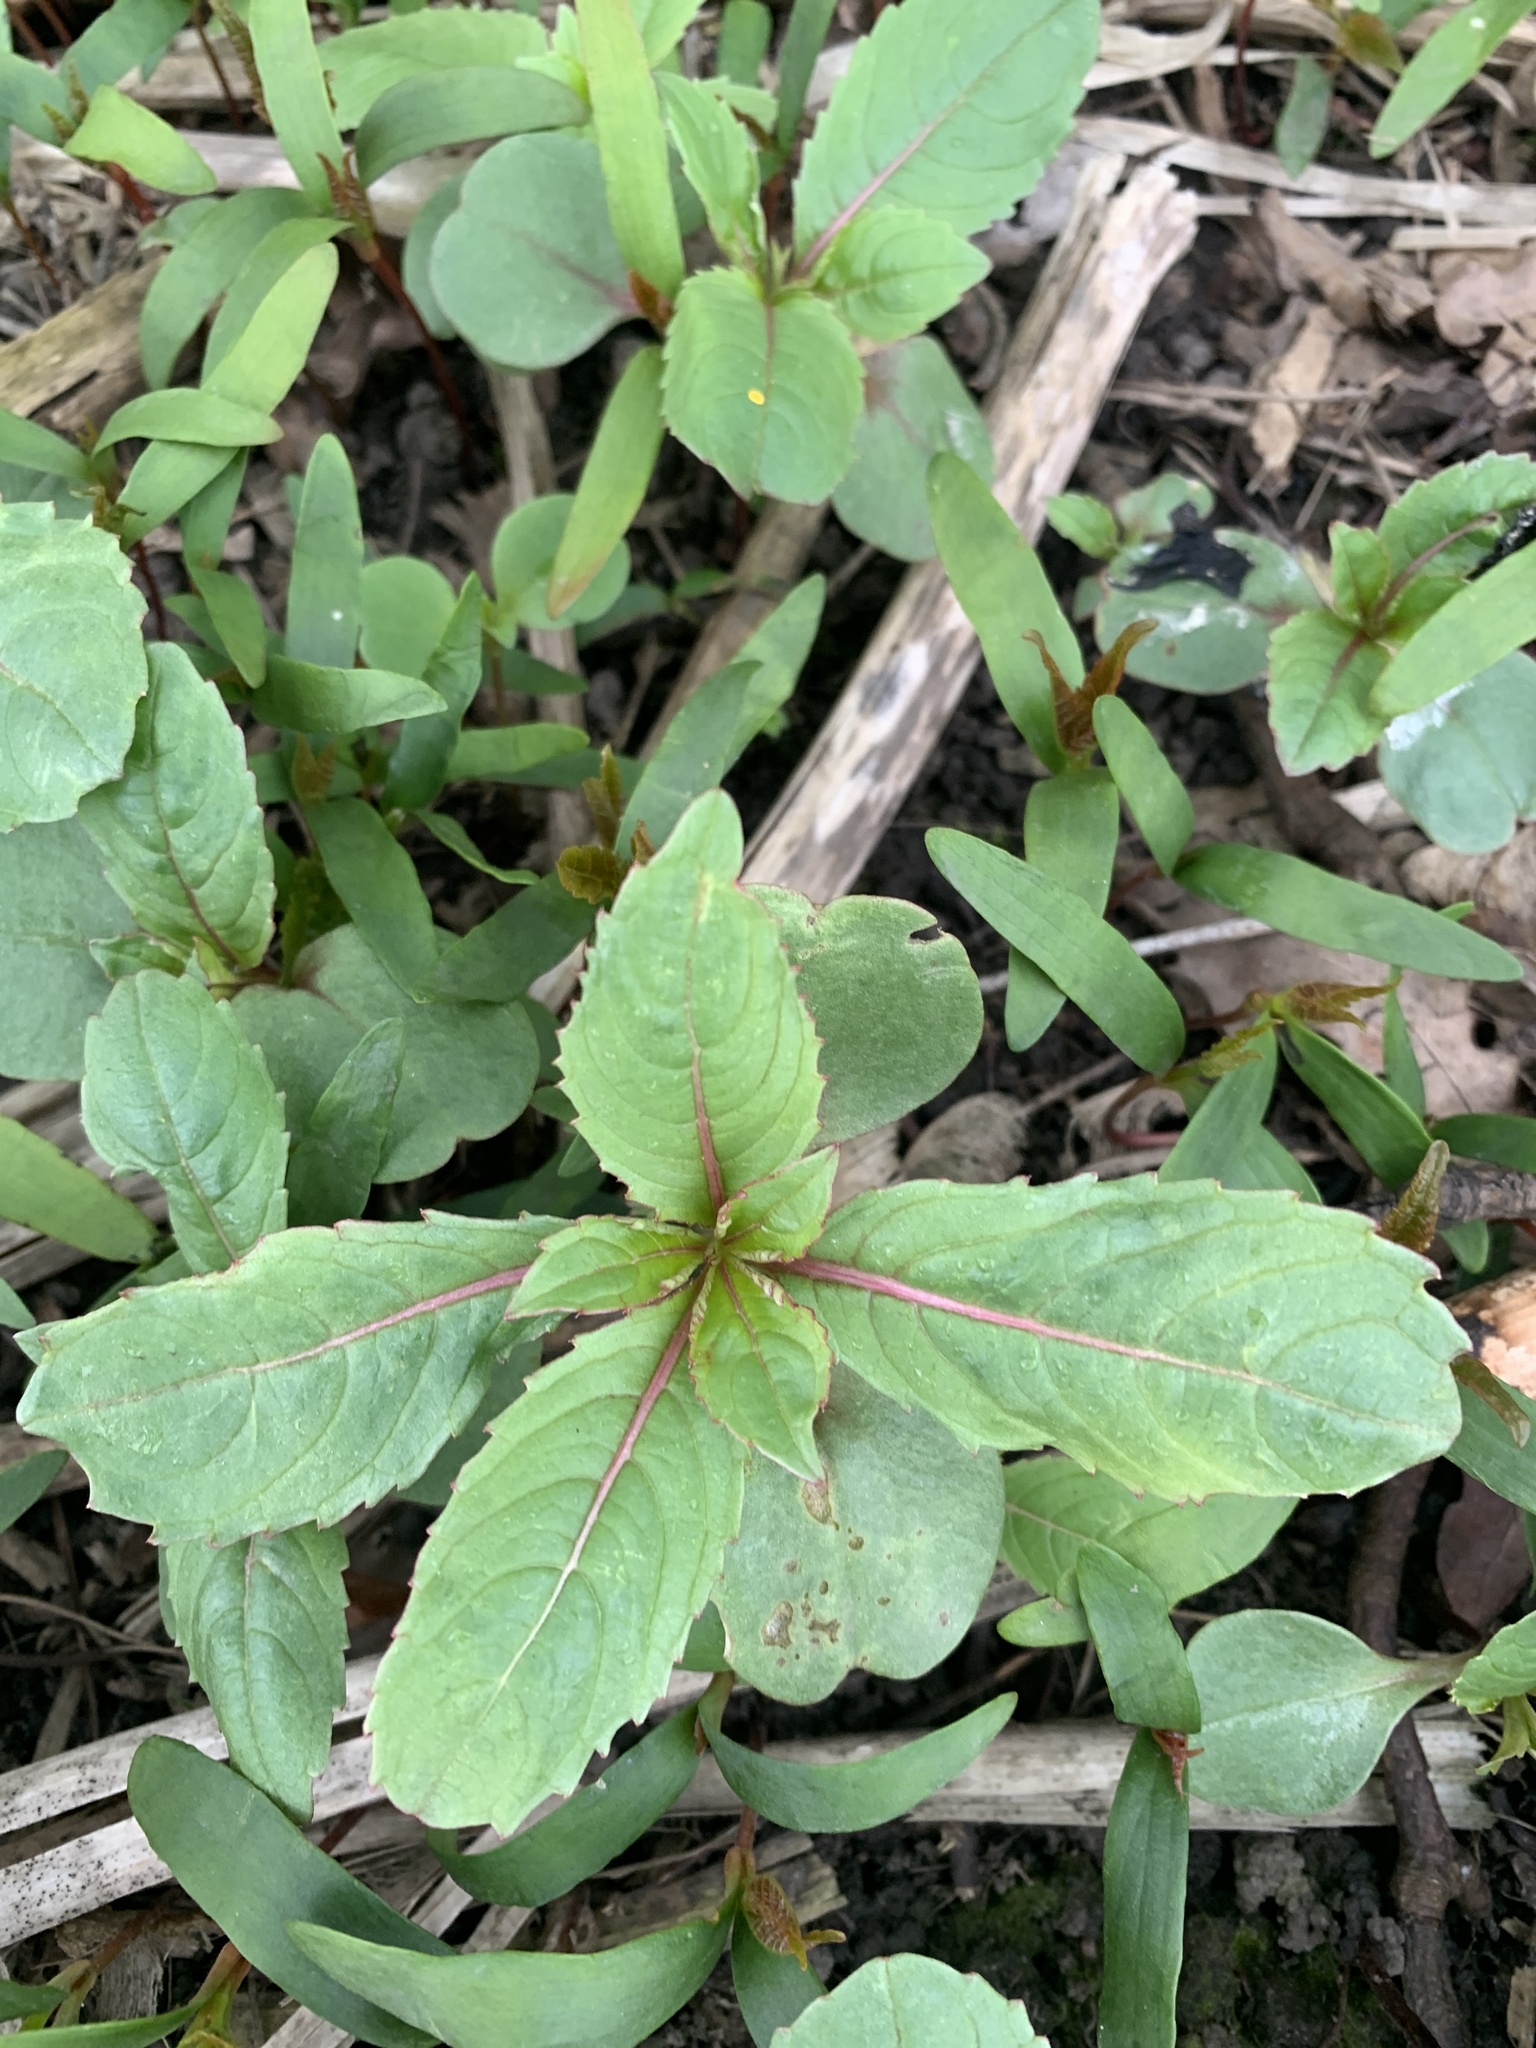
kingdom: Plantae
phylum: Tracheophyta
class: Magnoliopsida
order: Ericales
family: Balsaminaceae
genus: Impatiens
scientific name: Impatiens glandulifera
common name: Himalayan balsam
